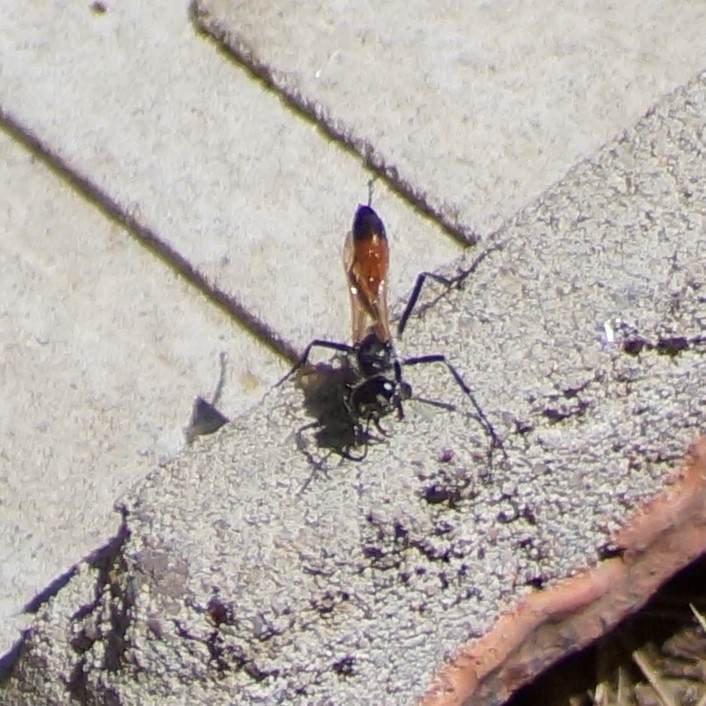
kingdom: Animalia
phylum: Arthropoda
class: Insecta
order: Hymenoptera
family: Sphecidae
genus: Podalonia
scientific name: Podalonia tydei
